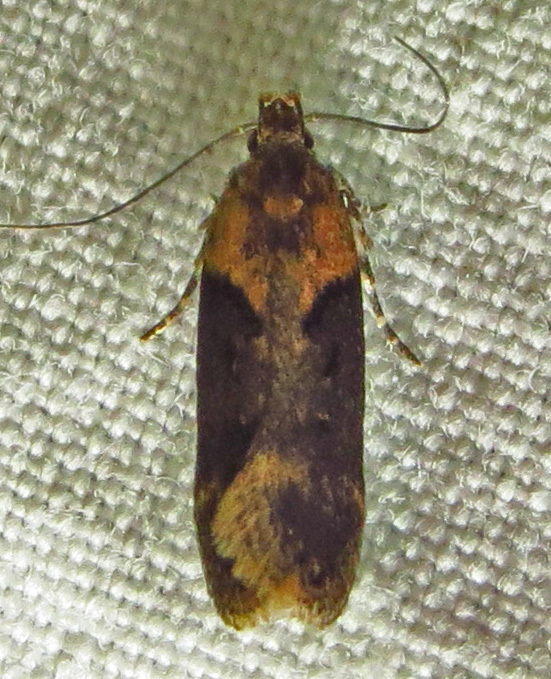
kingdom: Animalia
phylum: Arthropoda
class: Insecta
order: Lepidoptera
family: Gelechiidae
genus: Chionodes
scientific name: Chionodes mediofuscella
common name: Black-smudged chionodes moth
